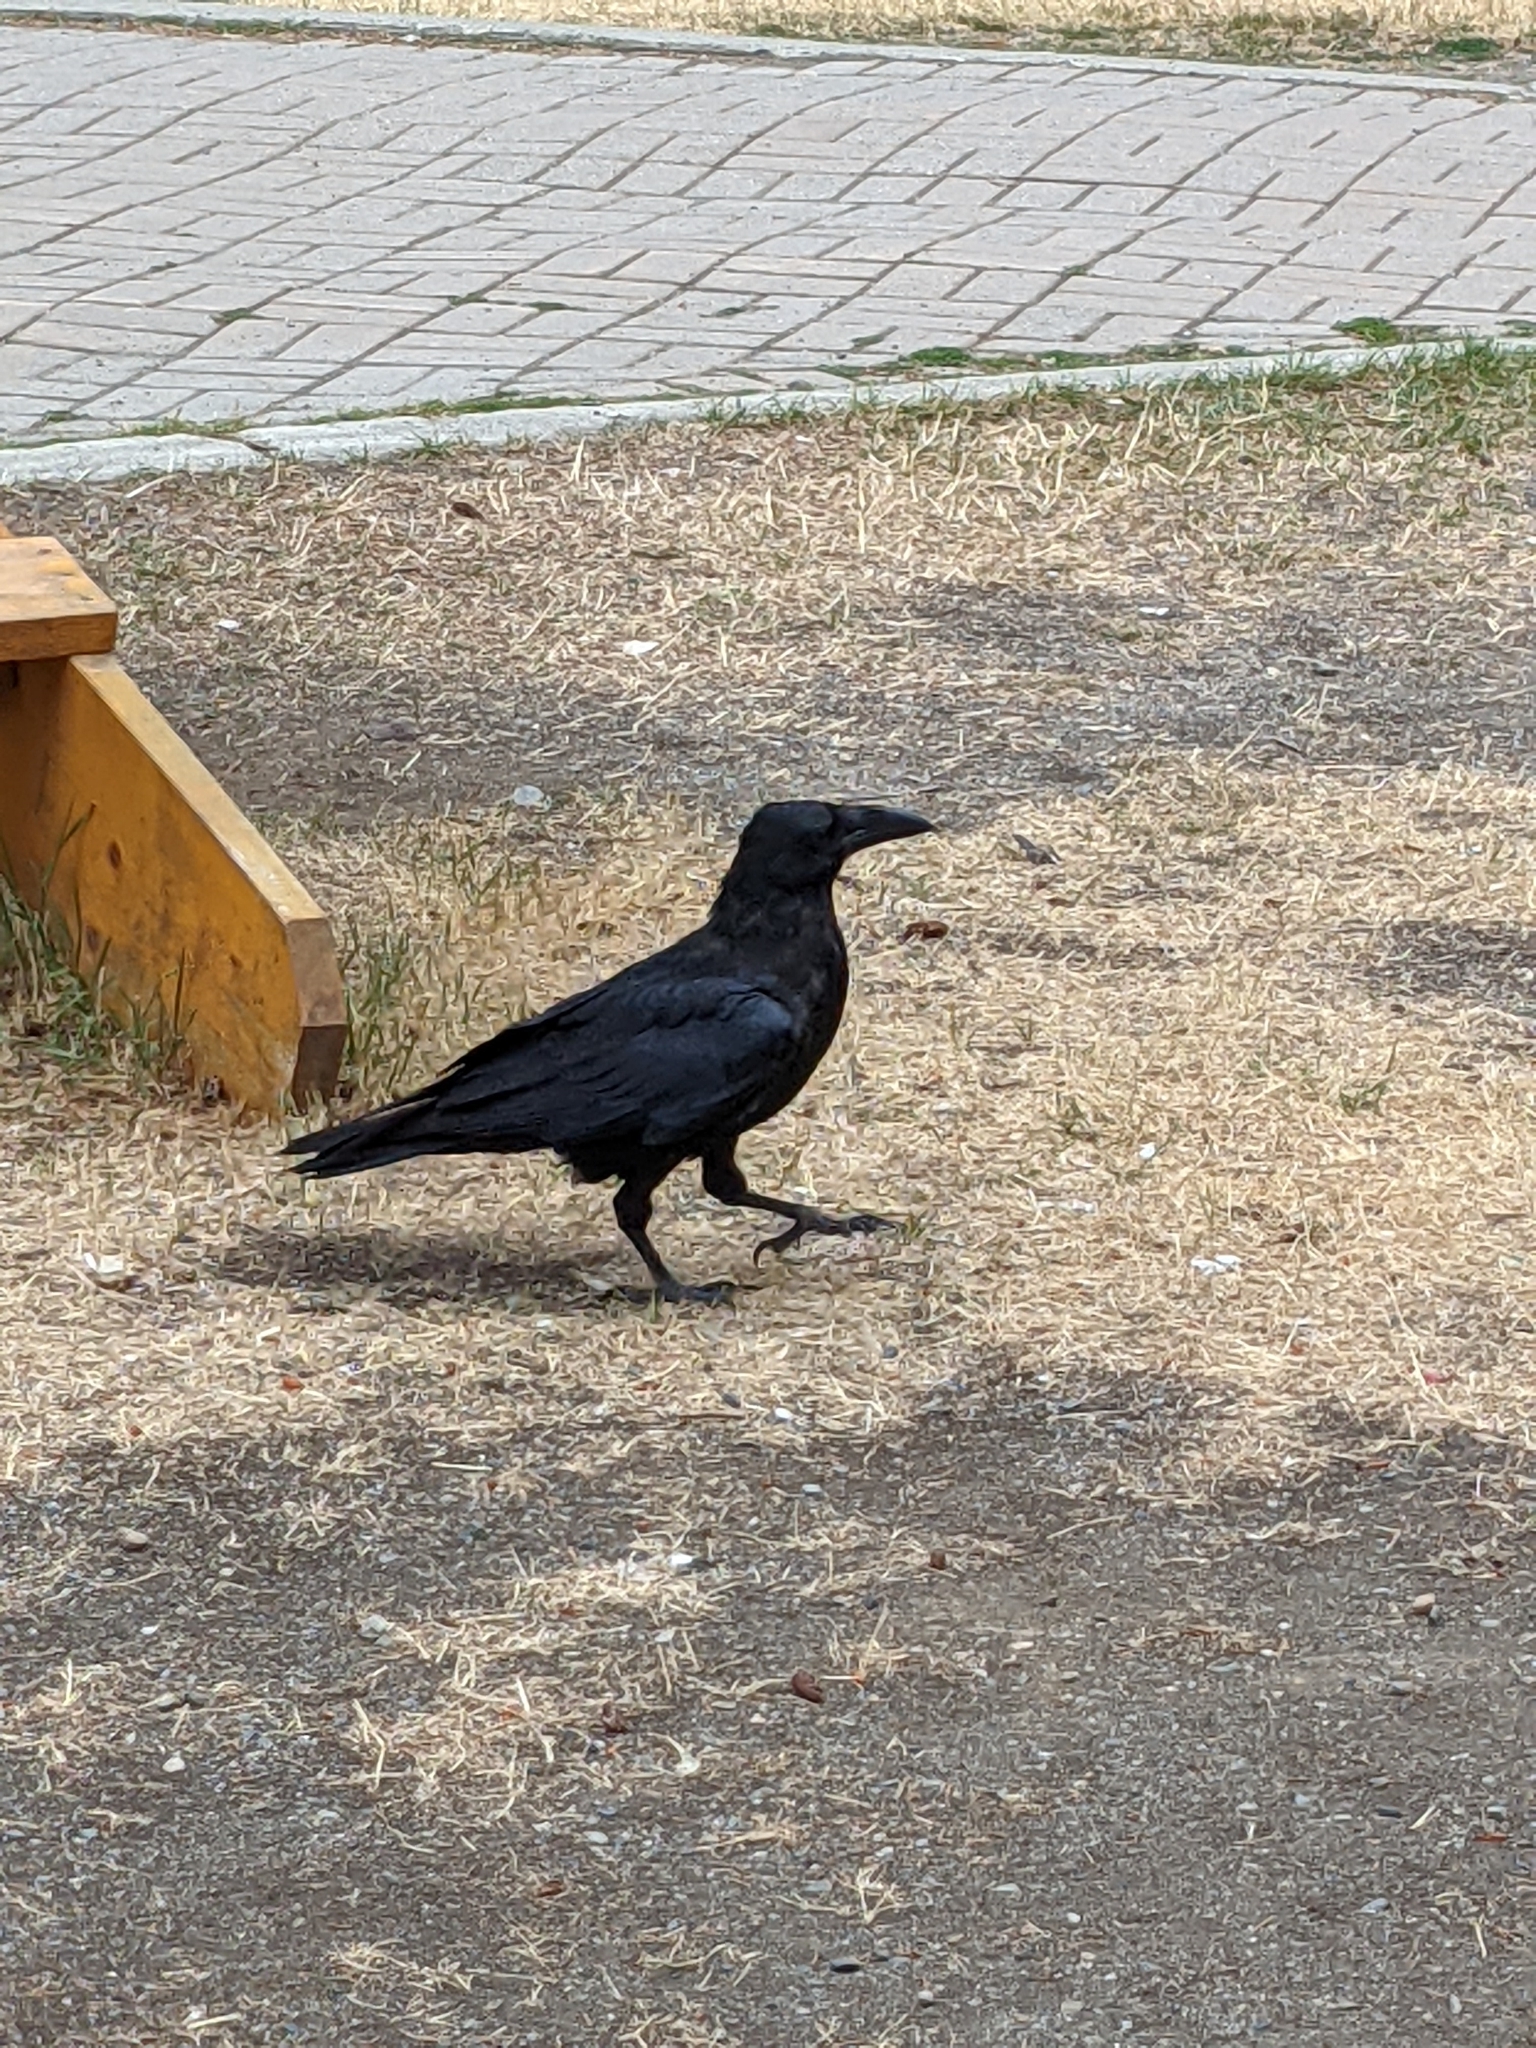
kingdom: Animalia
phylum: Chordata
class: Aves
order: Passeriformes
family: Corvidae
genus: Corvus
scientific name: Corvus corax
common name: Common raven
